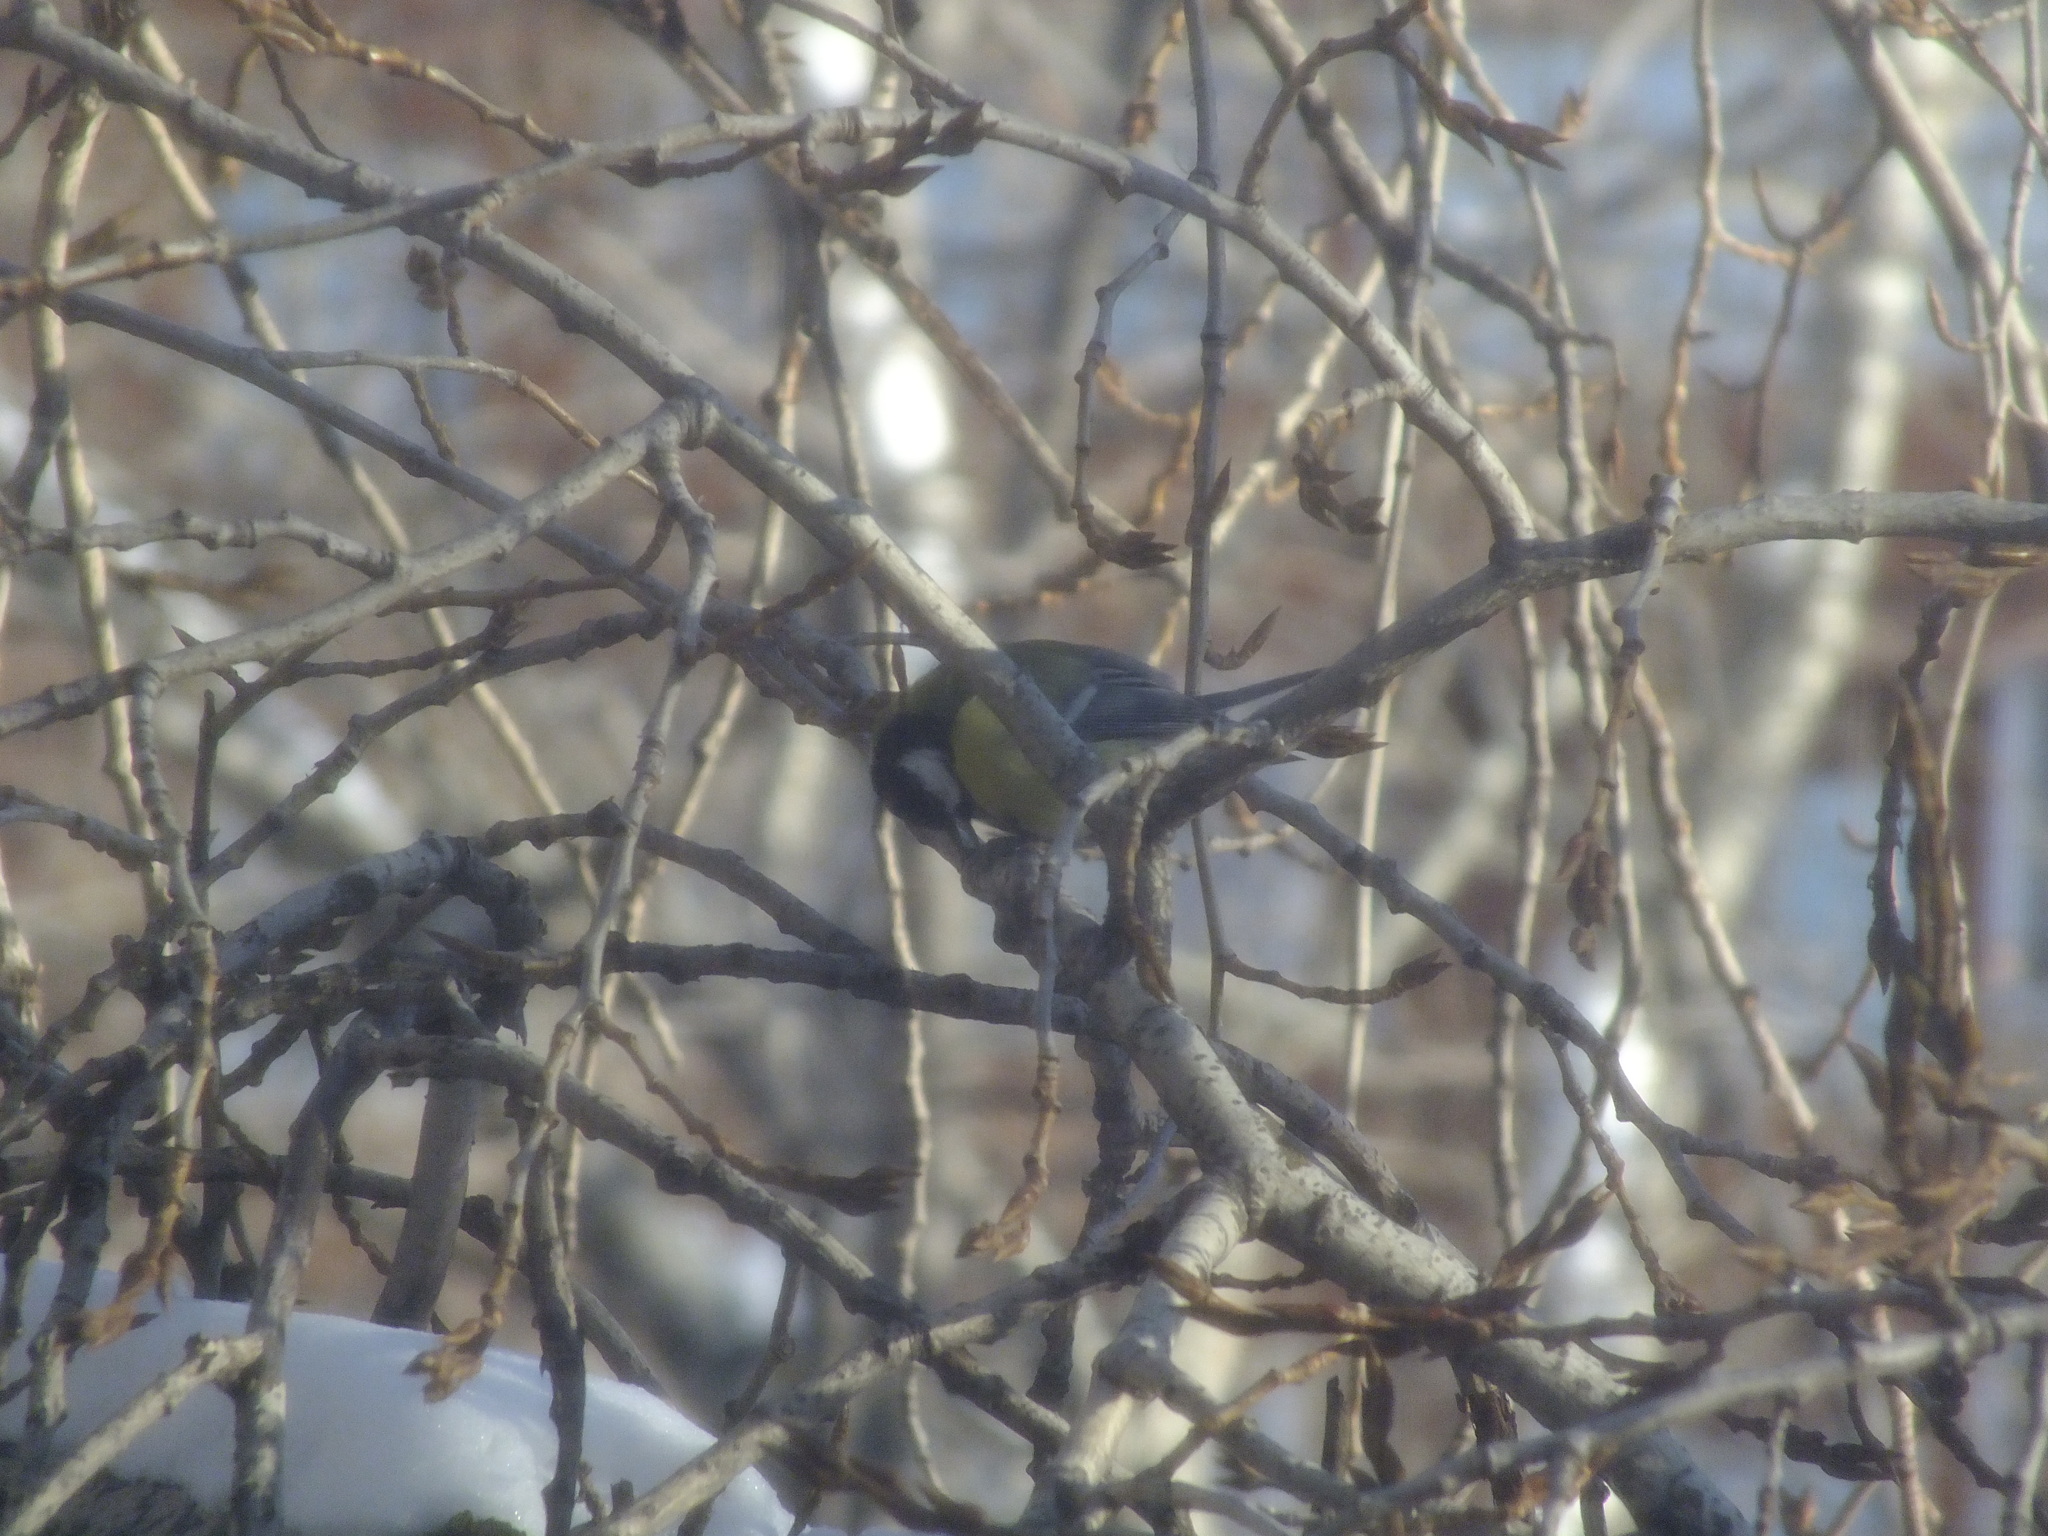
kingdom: Animalia
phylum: Chordata
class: Aves
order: Passeriformes
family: Paridae
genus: Parus
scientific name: Parus major
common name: Great tit
